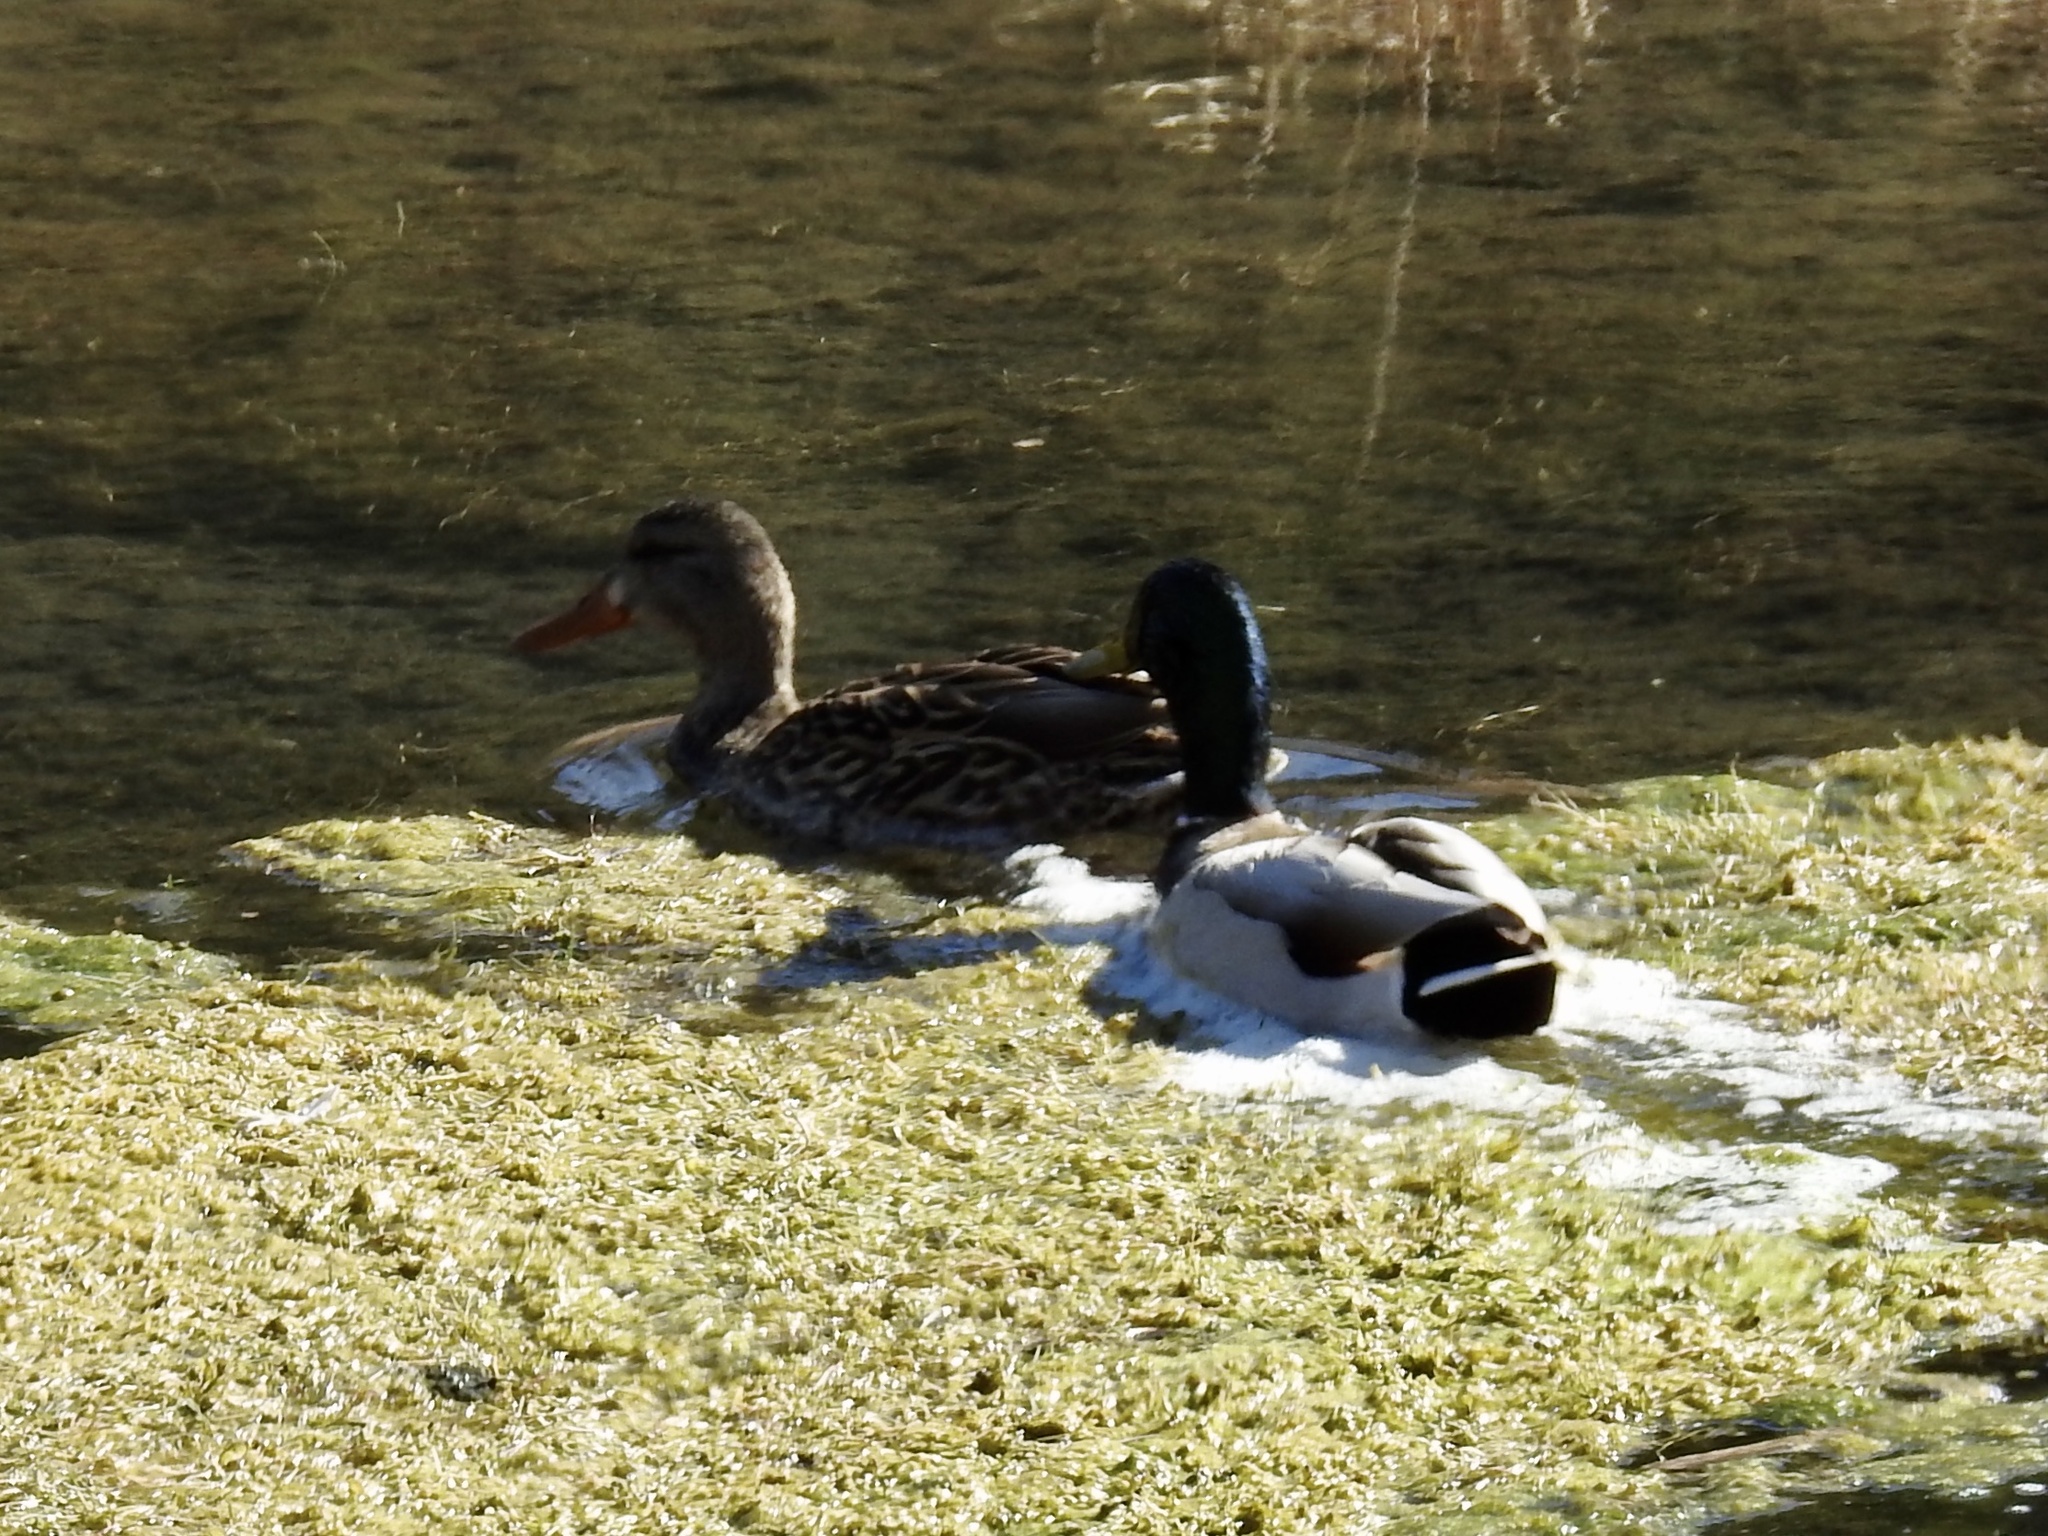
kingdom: Animalia
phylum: Chordata
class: Aves
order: Anseriformes
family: Anatidae
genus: Anas
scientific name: Anas platyrhynchos
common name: Mallard
